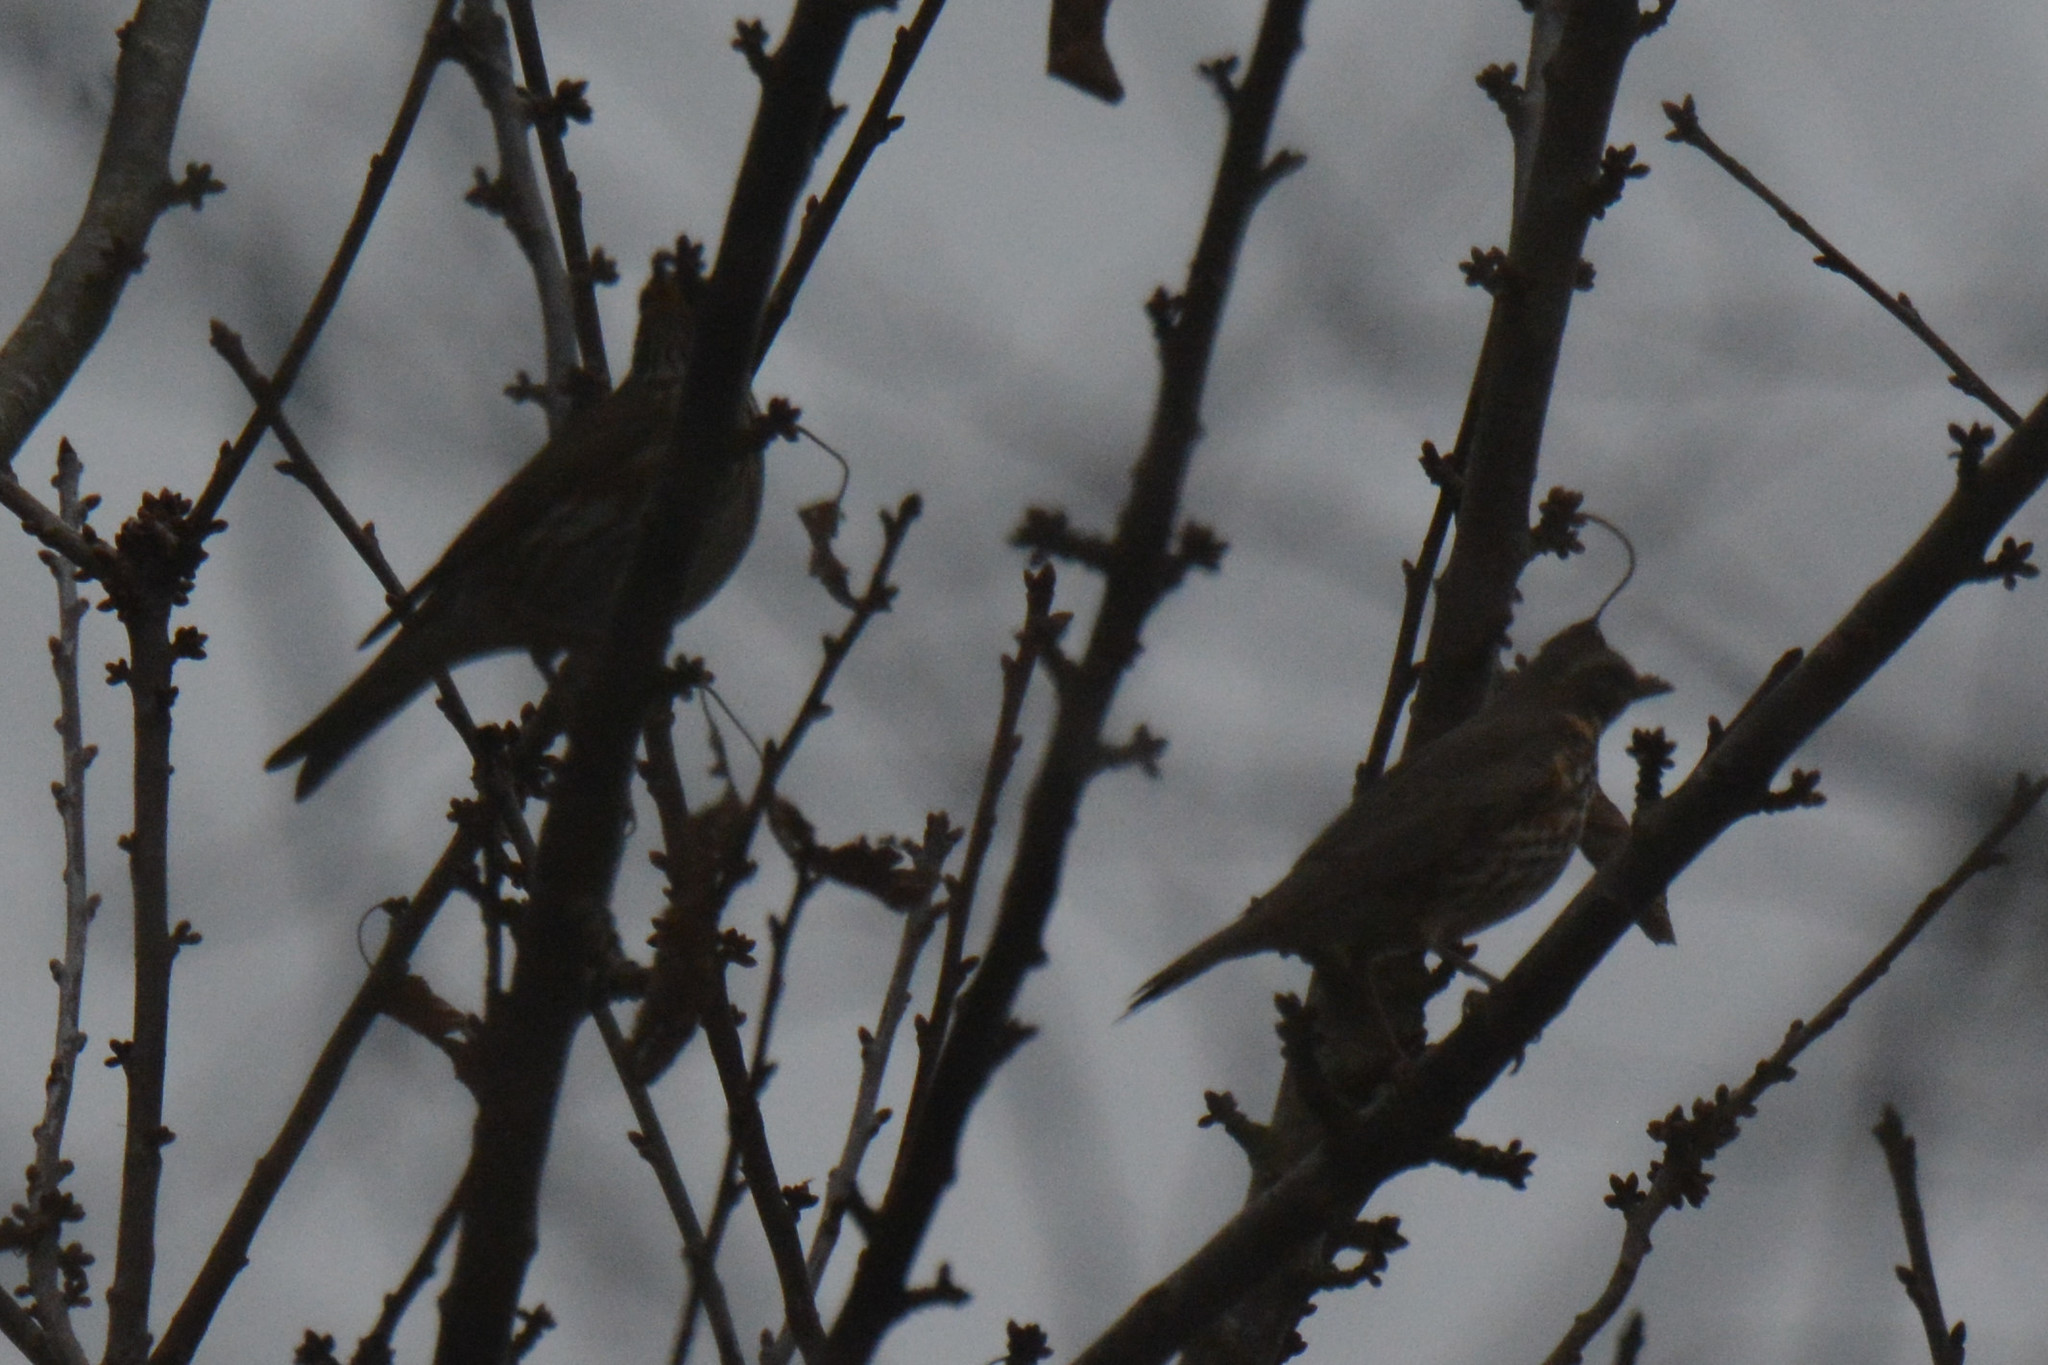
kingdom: Animalia
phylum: Chordata
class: Aves
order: Passeriformes
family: Turdidae
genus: Turdus
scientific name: Turdus iliacus
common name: Redwing
